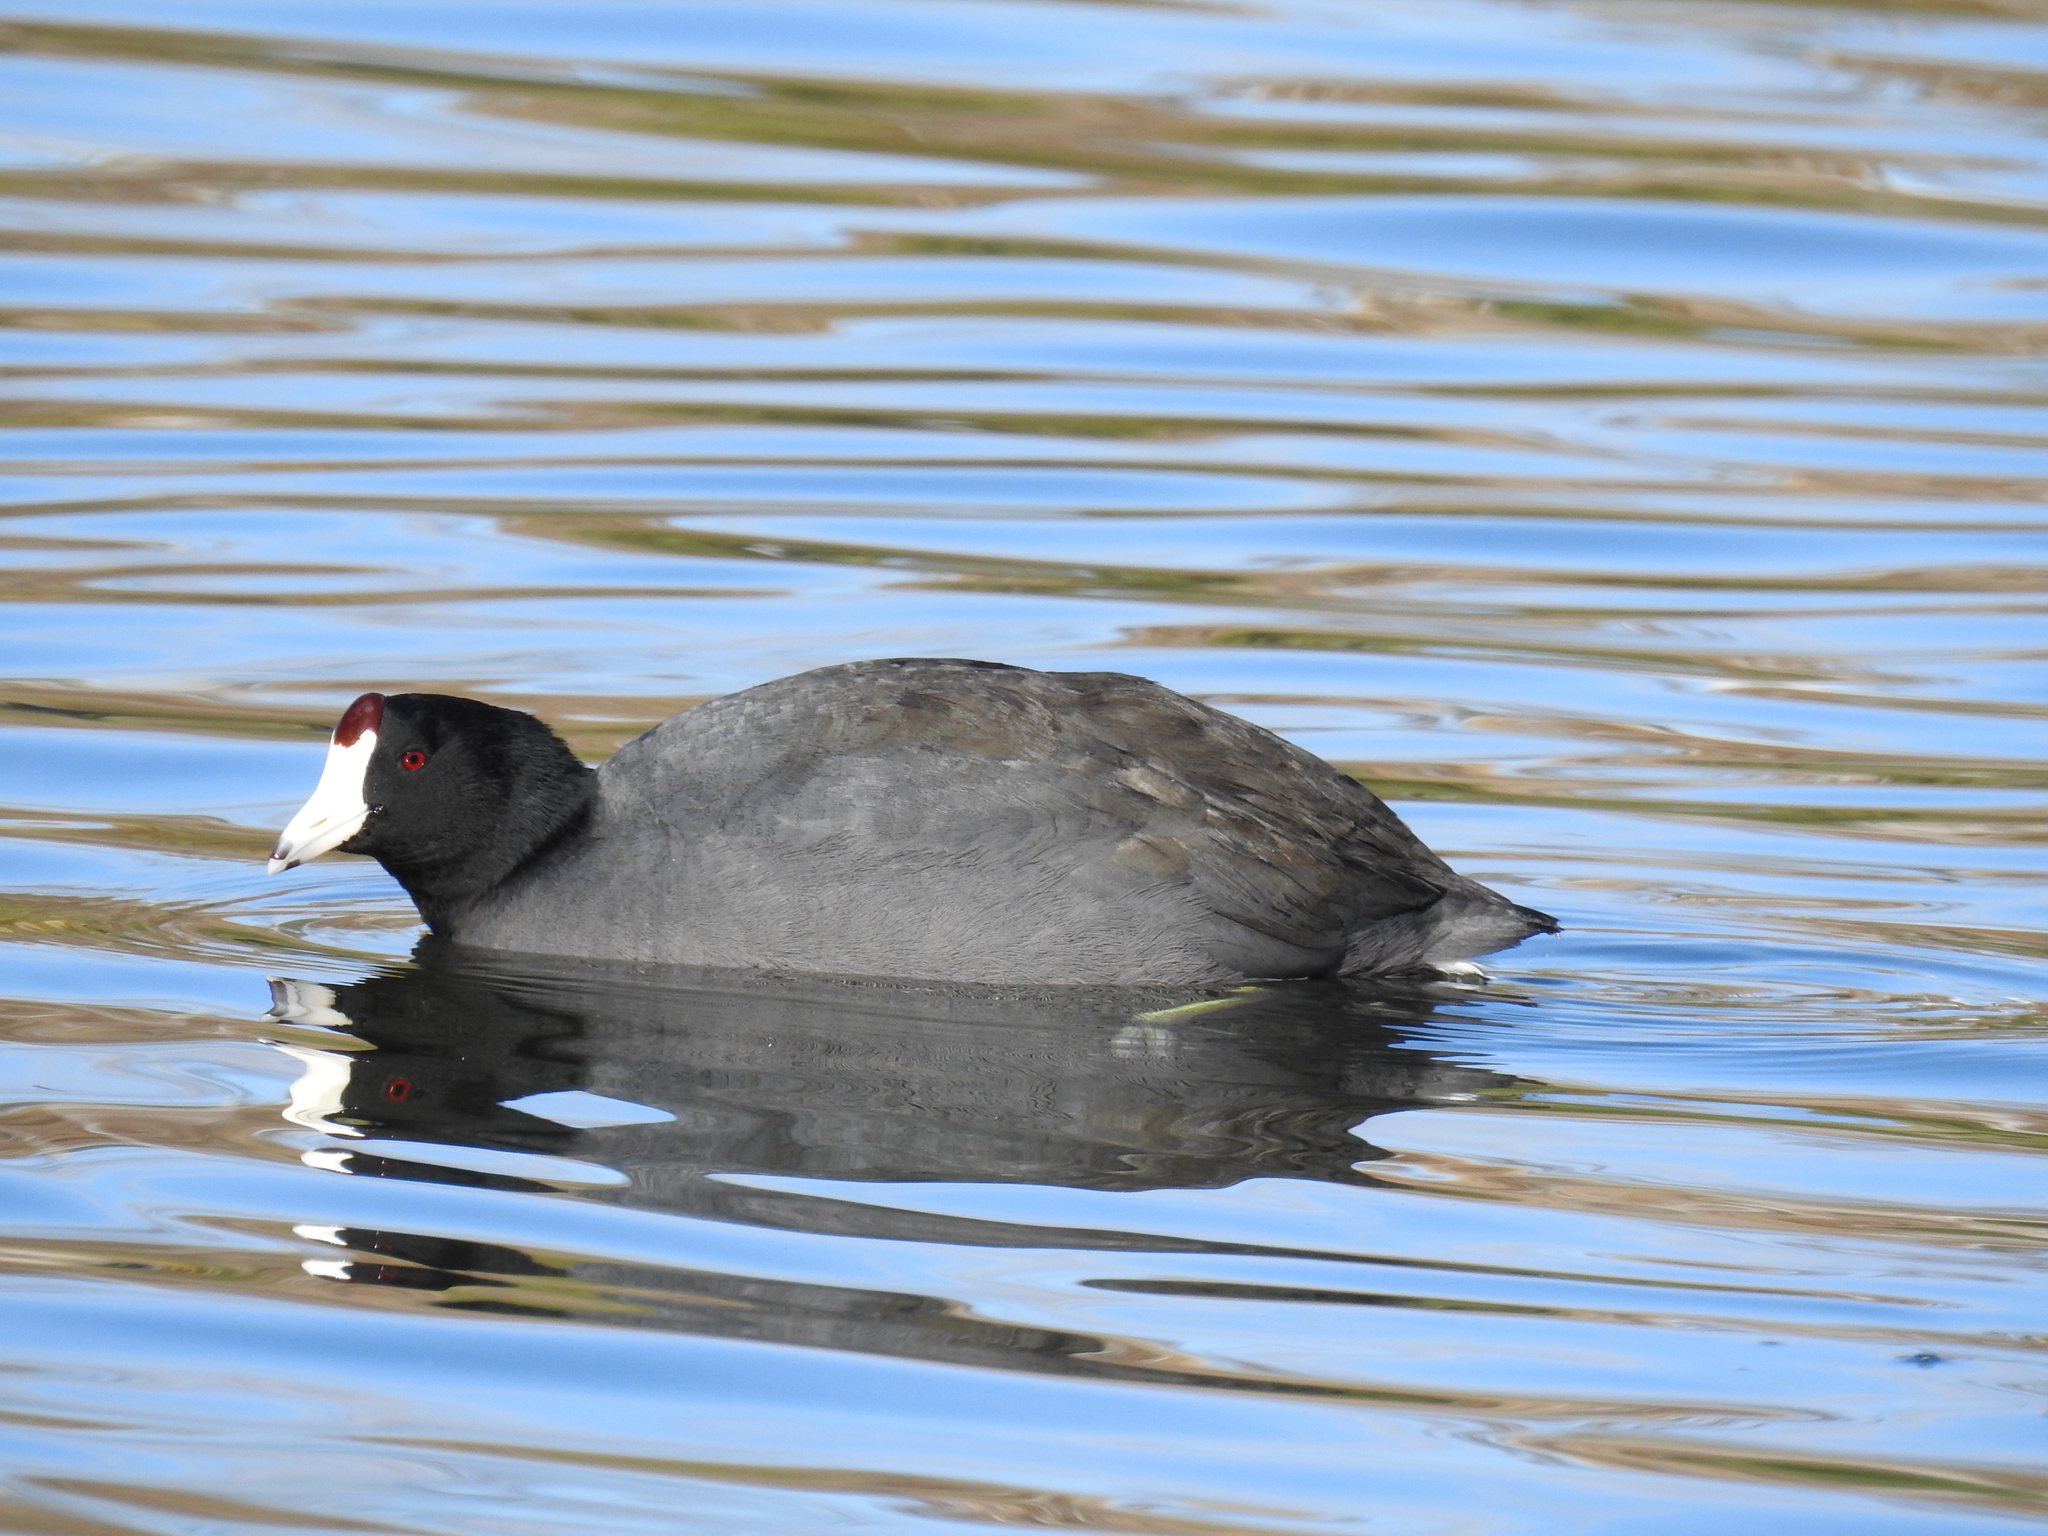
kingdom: Animalia
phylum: Chordata
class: Aves
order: Gruiformes
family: Rallidae
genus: Fulica
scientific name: Fulica americana
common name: American coot
